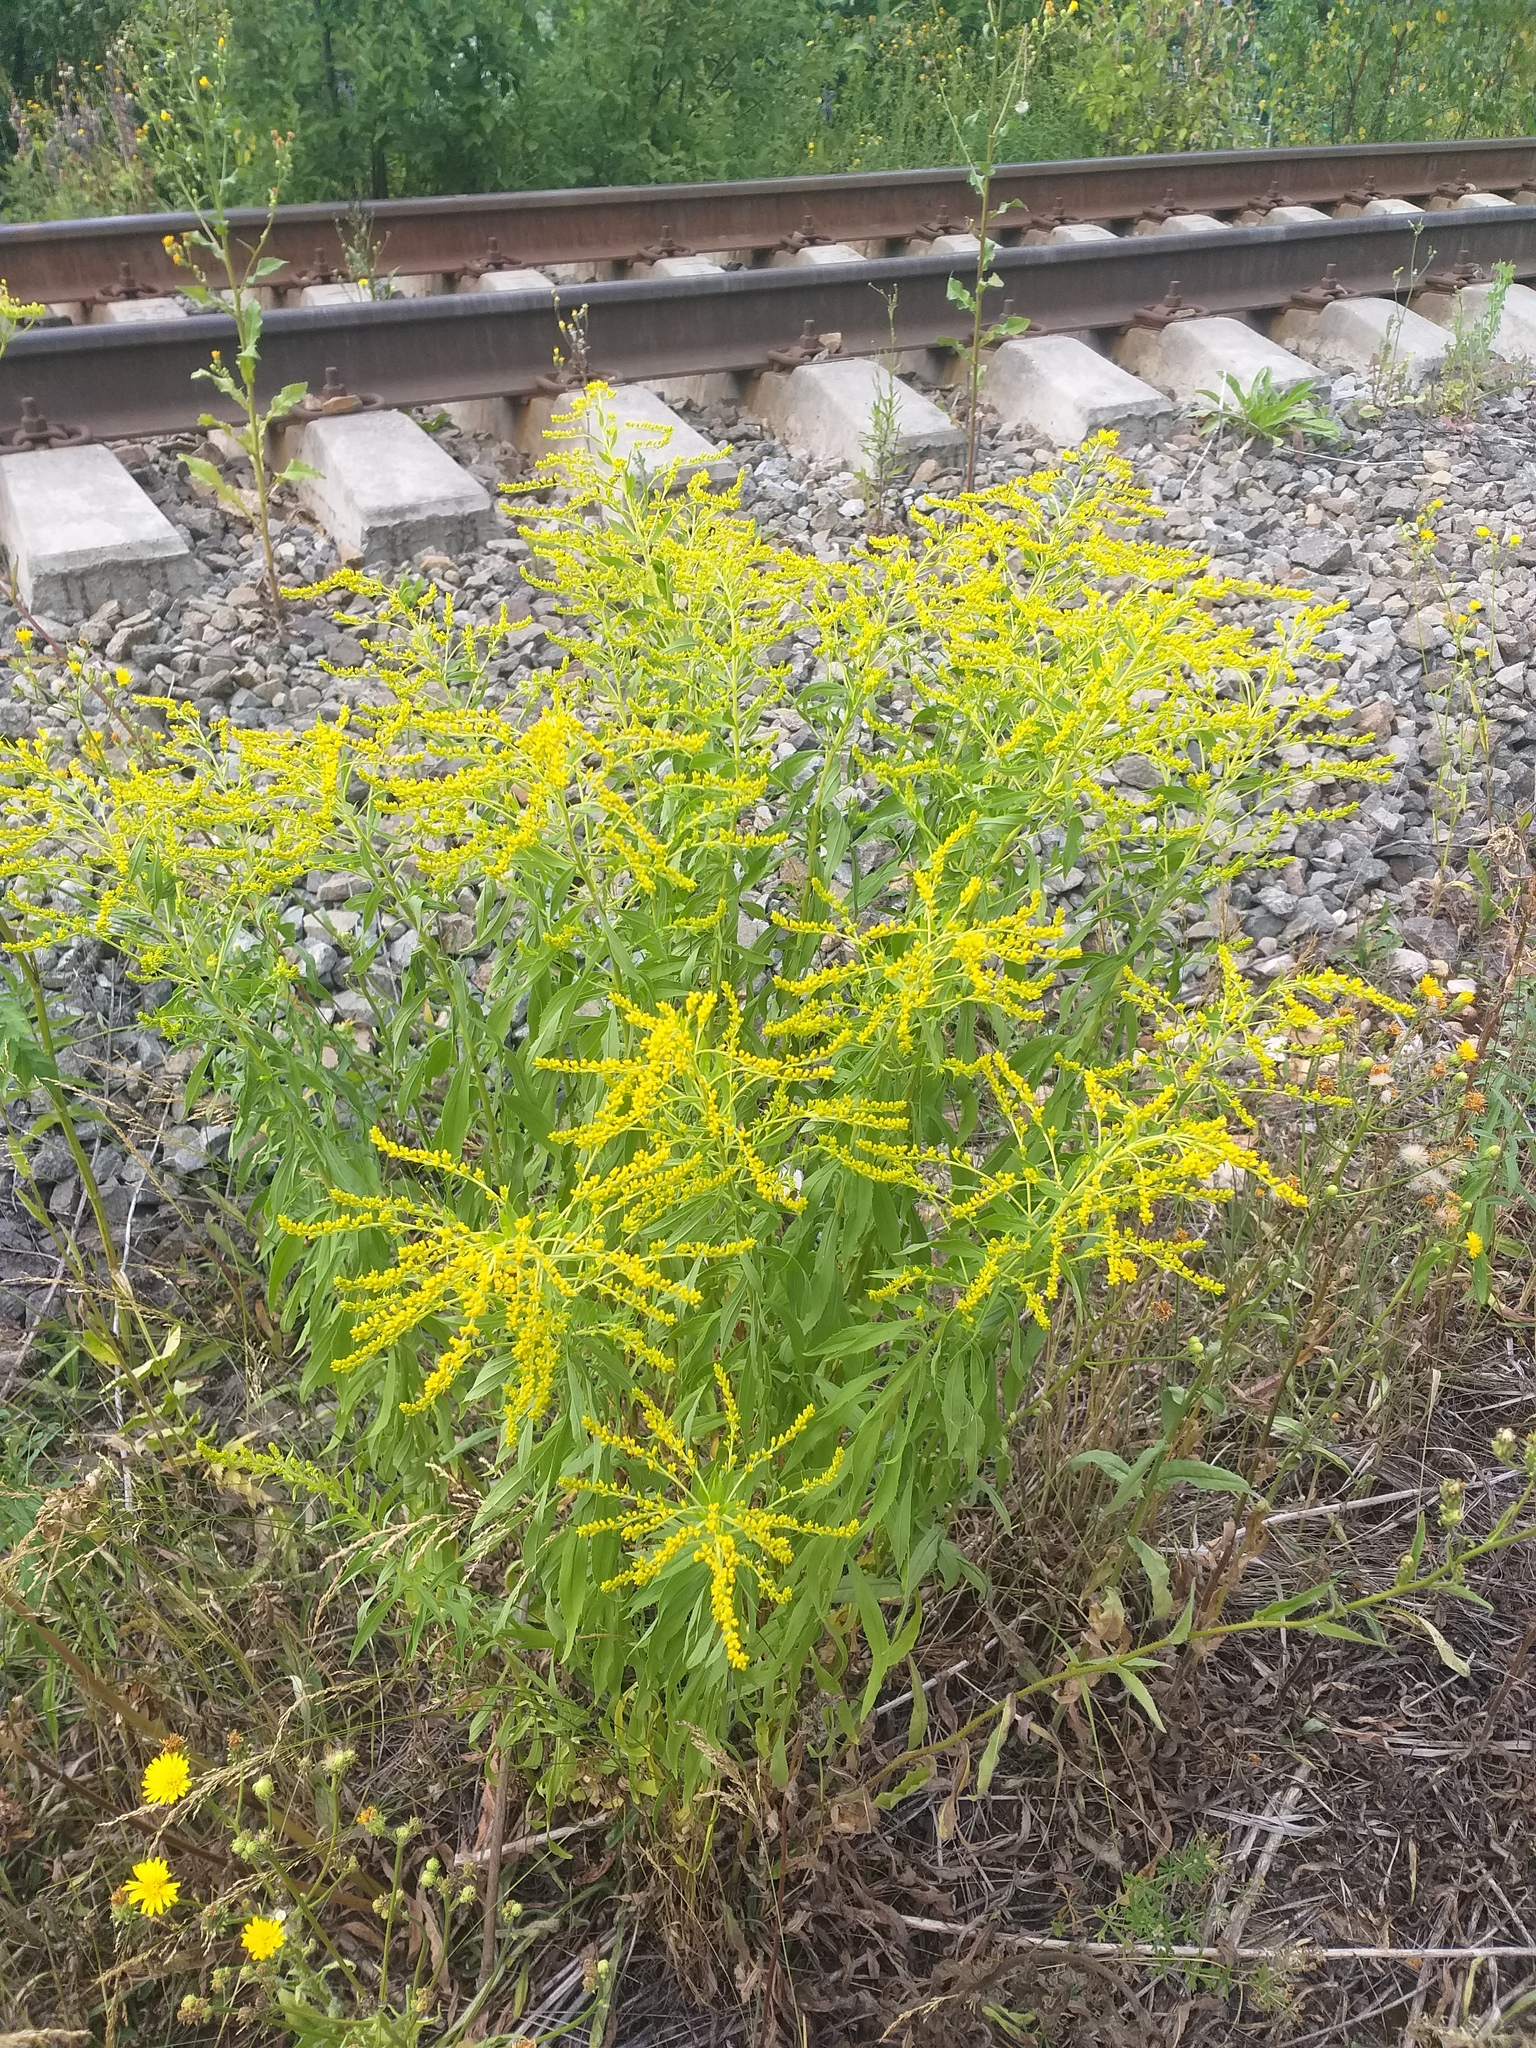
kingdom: Plantae
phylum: Tracheophyta
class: Magnoliopsida
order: Asterales
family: Asteraceae
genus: Solidago
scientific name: Solidago canadensis
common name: Canada goldenrod
